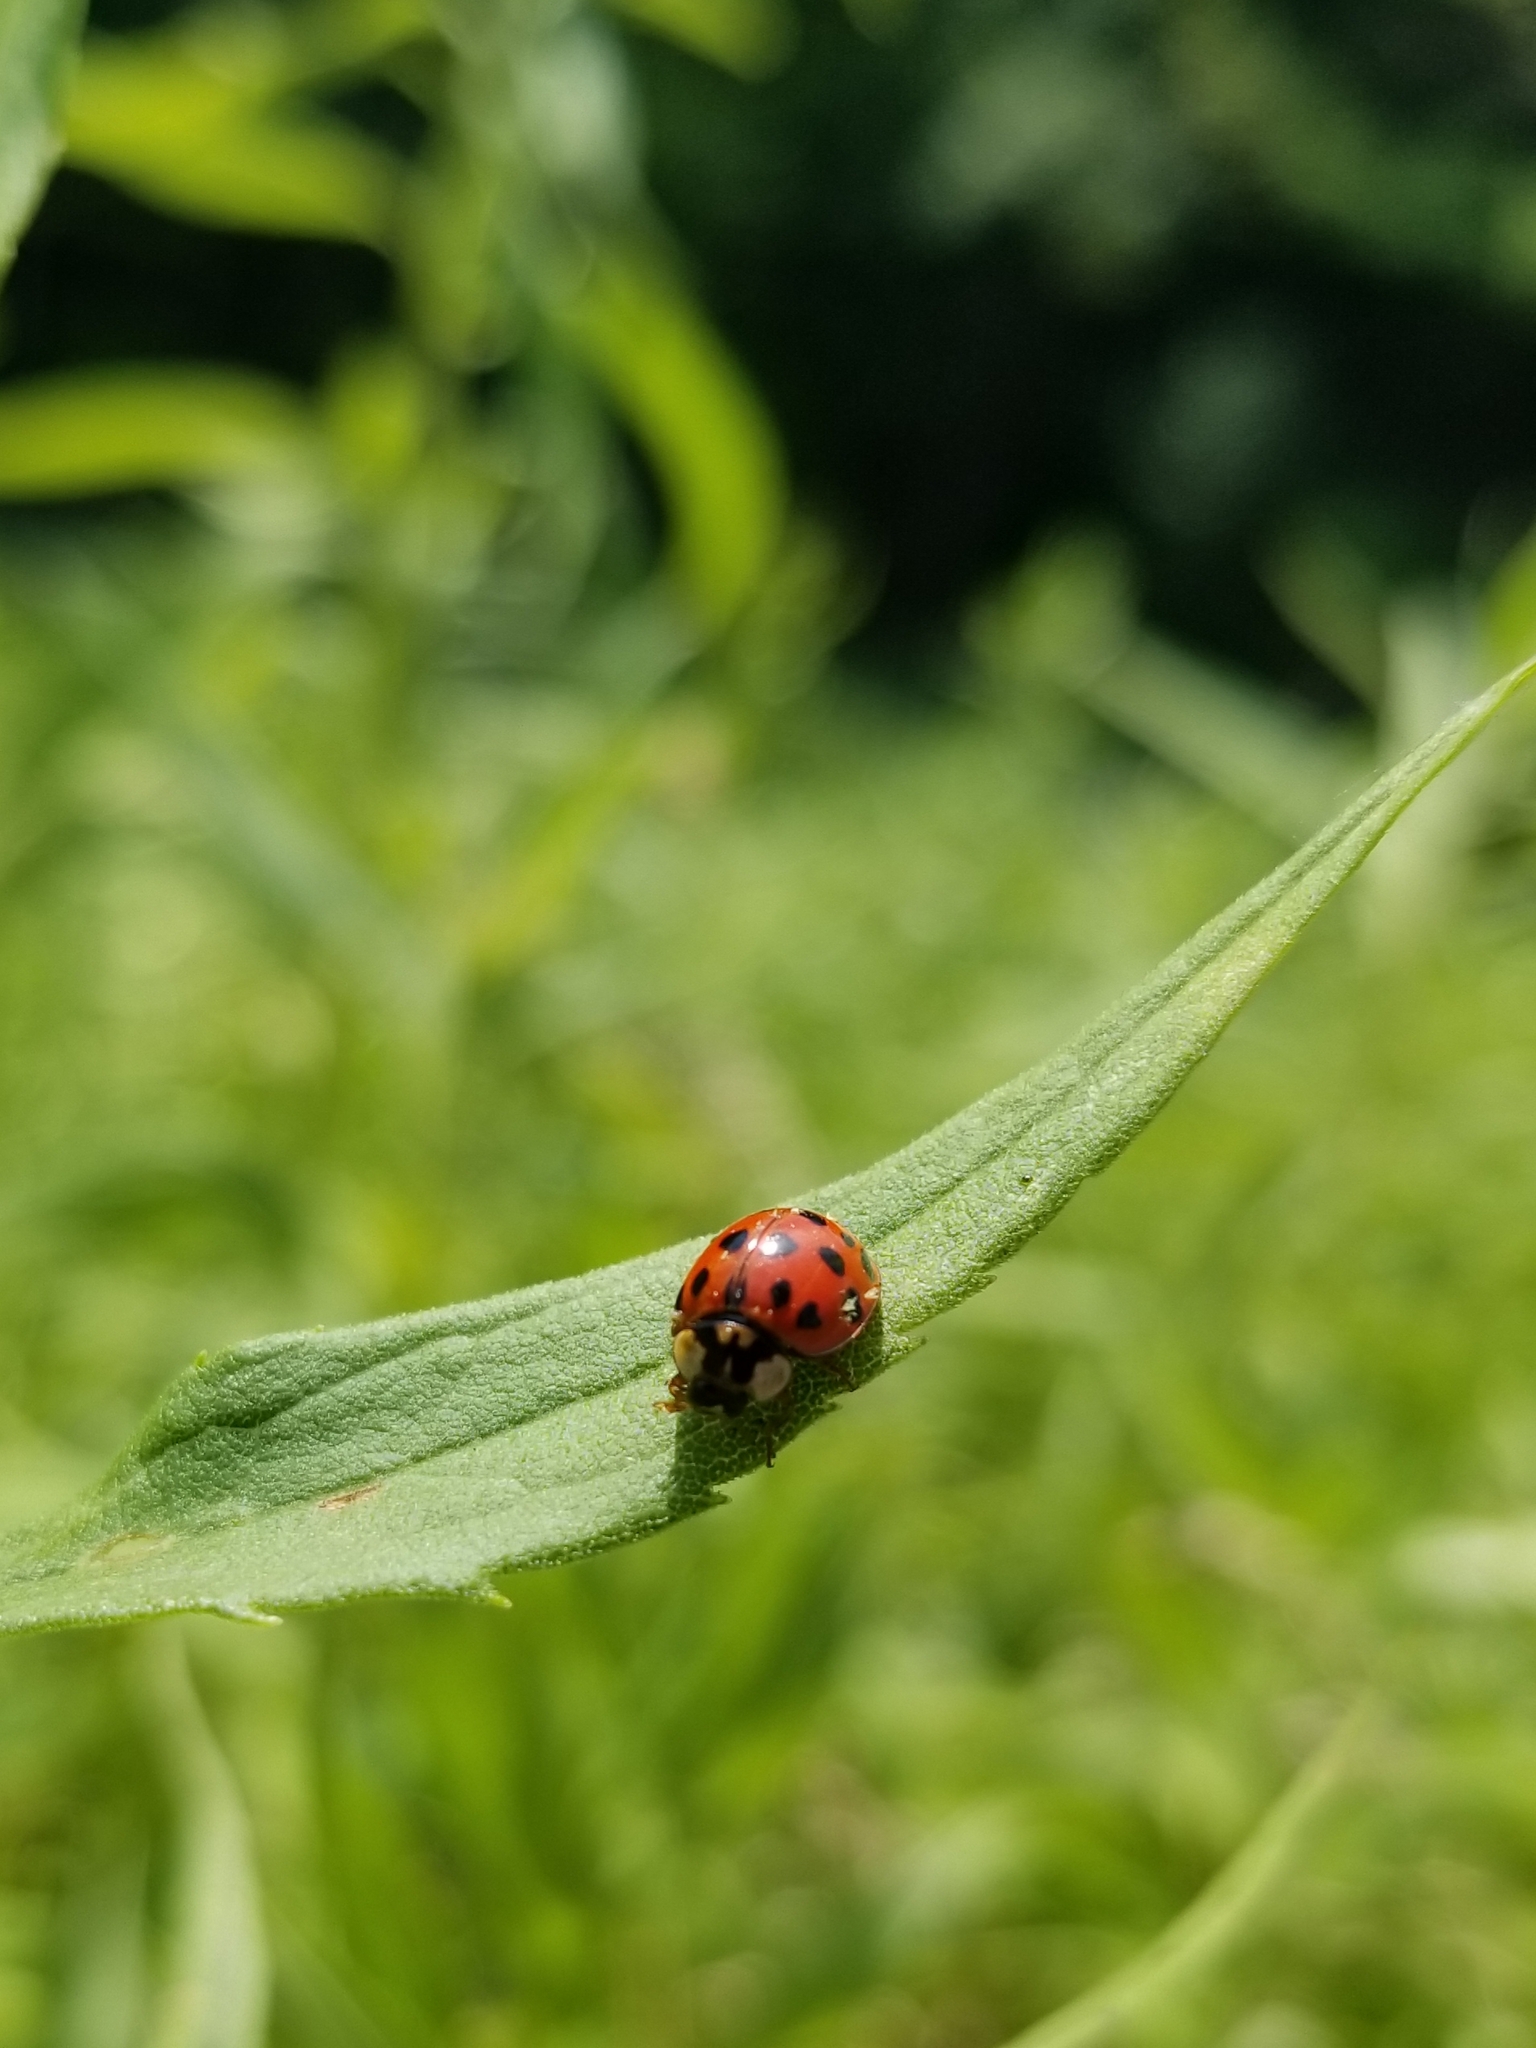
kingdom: Animalia
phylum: Arthropoda
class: Insecta
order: Coleoptera
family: Coccinellidae
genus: Harmonia
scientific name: Harmonia axyridis
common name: Harlequin ladybird
